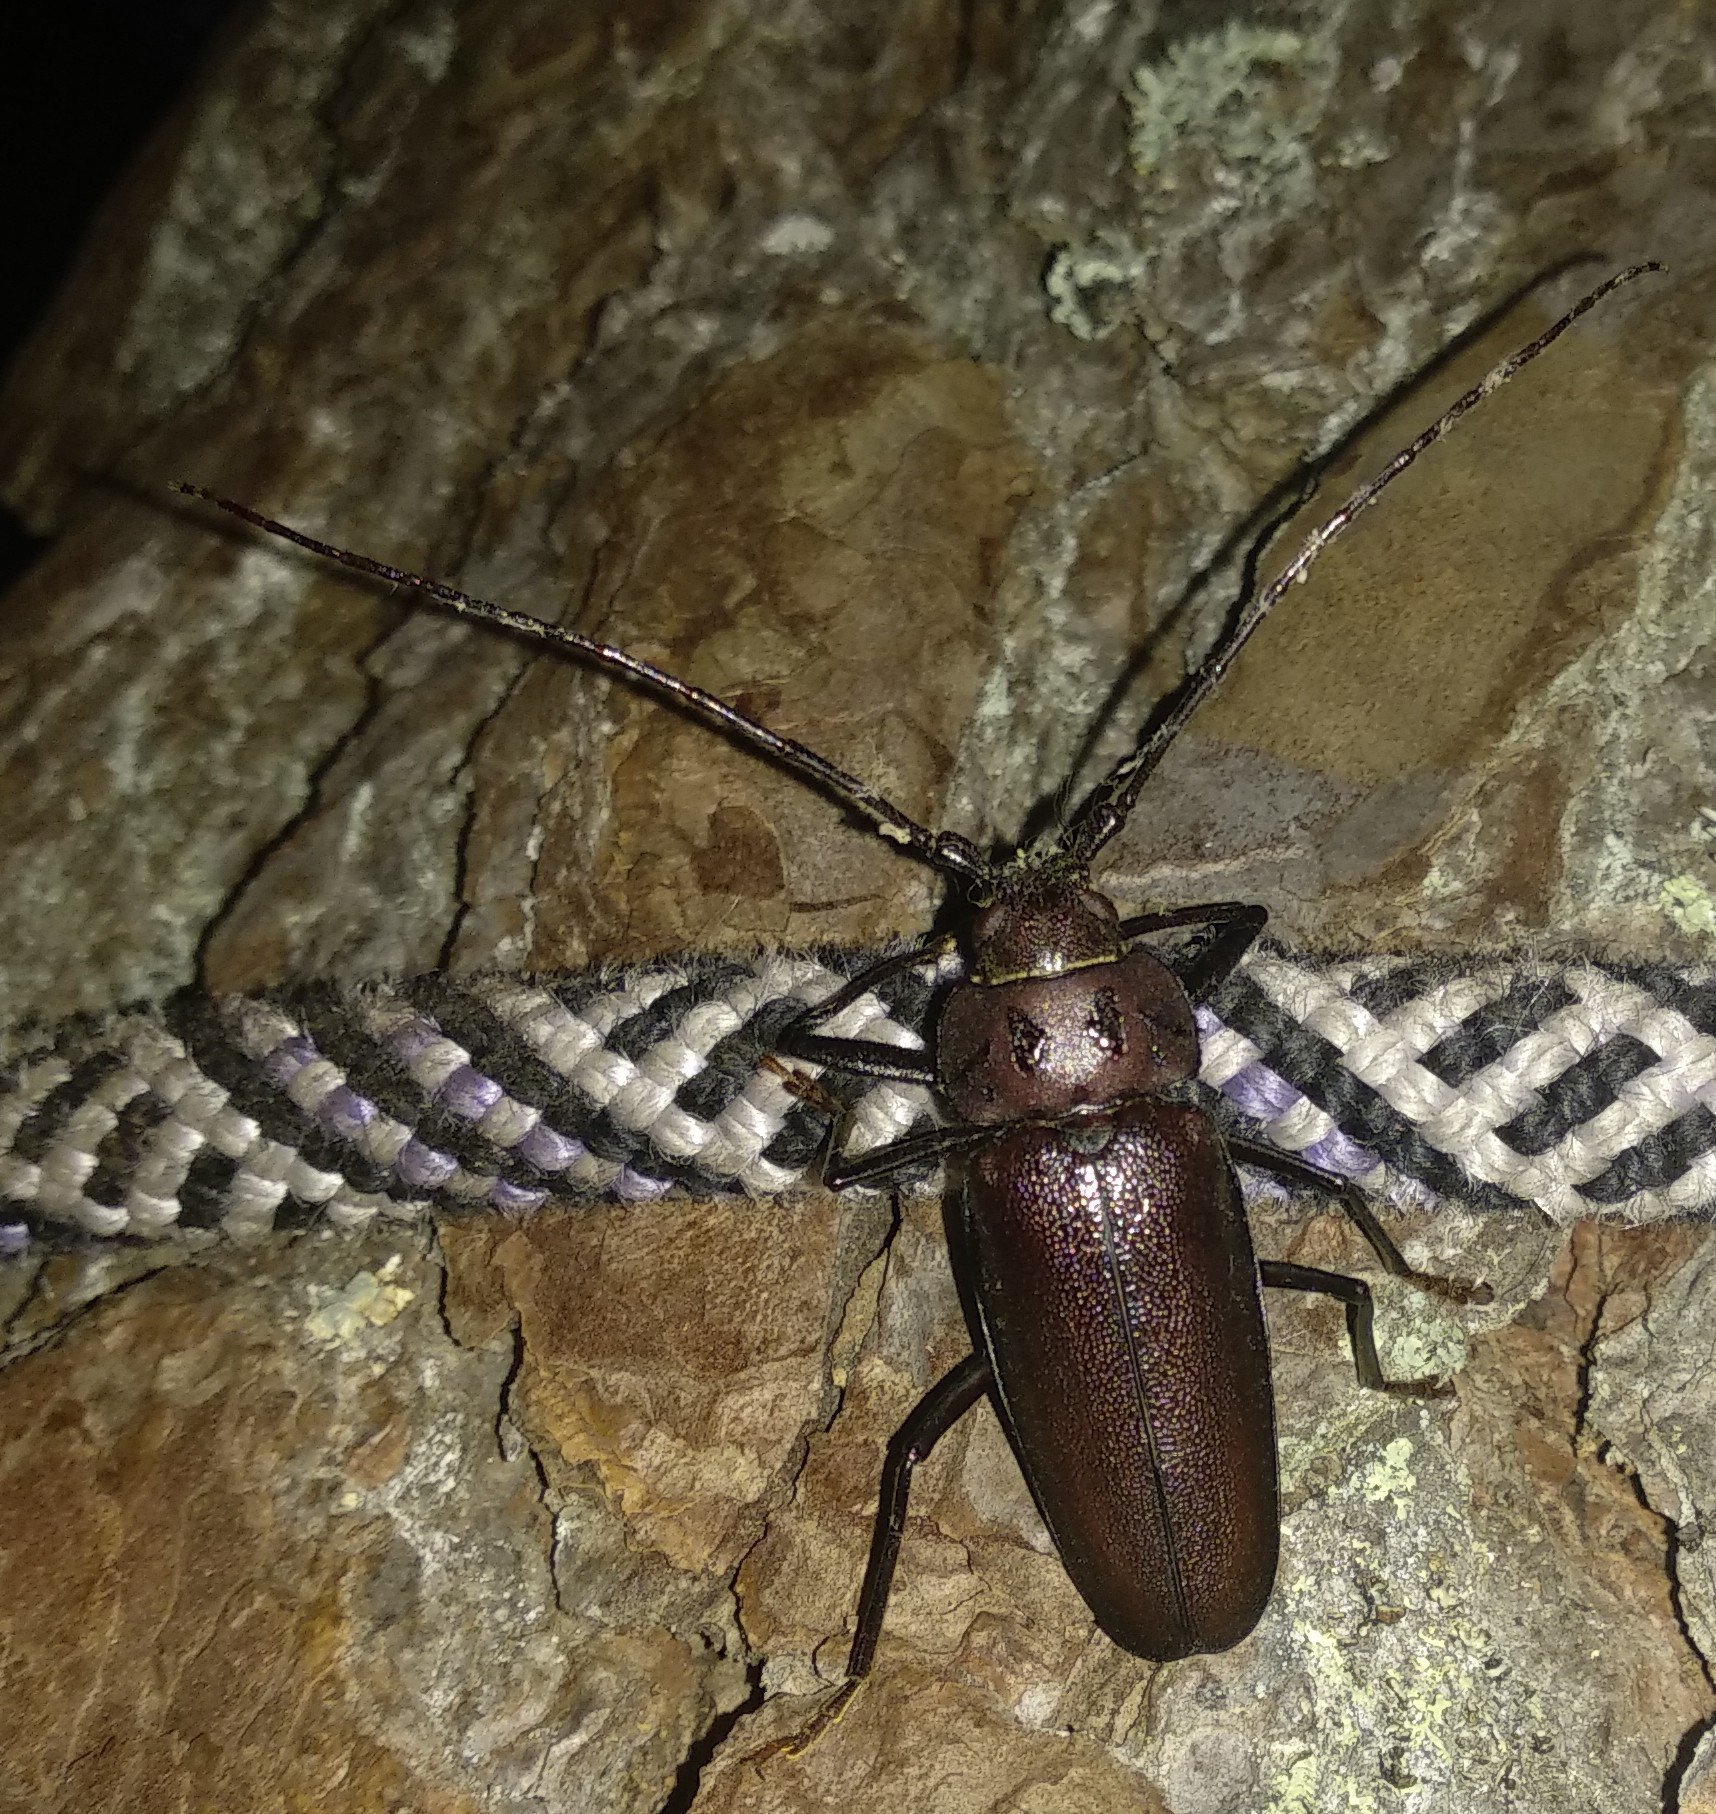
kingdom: Animalia
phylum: Arthropoda
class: Insecta
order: Coleoptera
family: Cerambycidae
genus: Ergates
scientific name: Ergates faber
